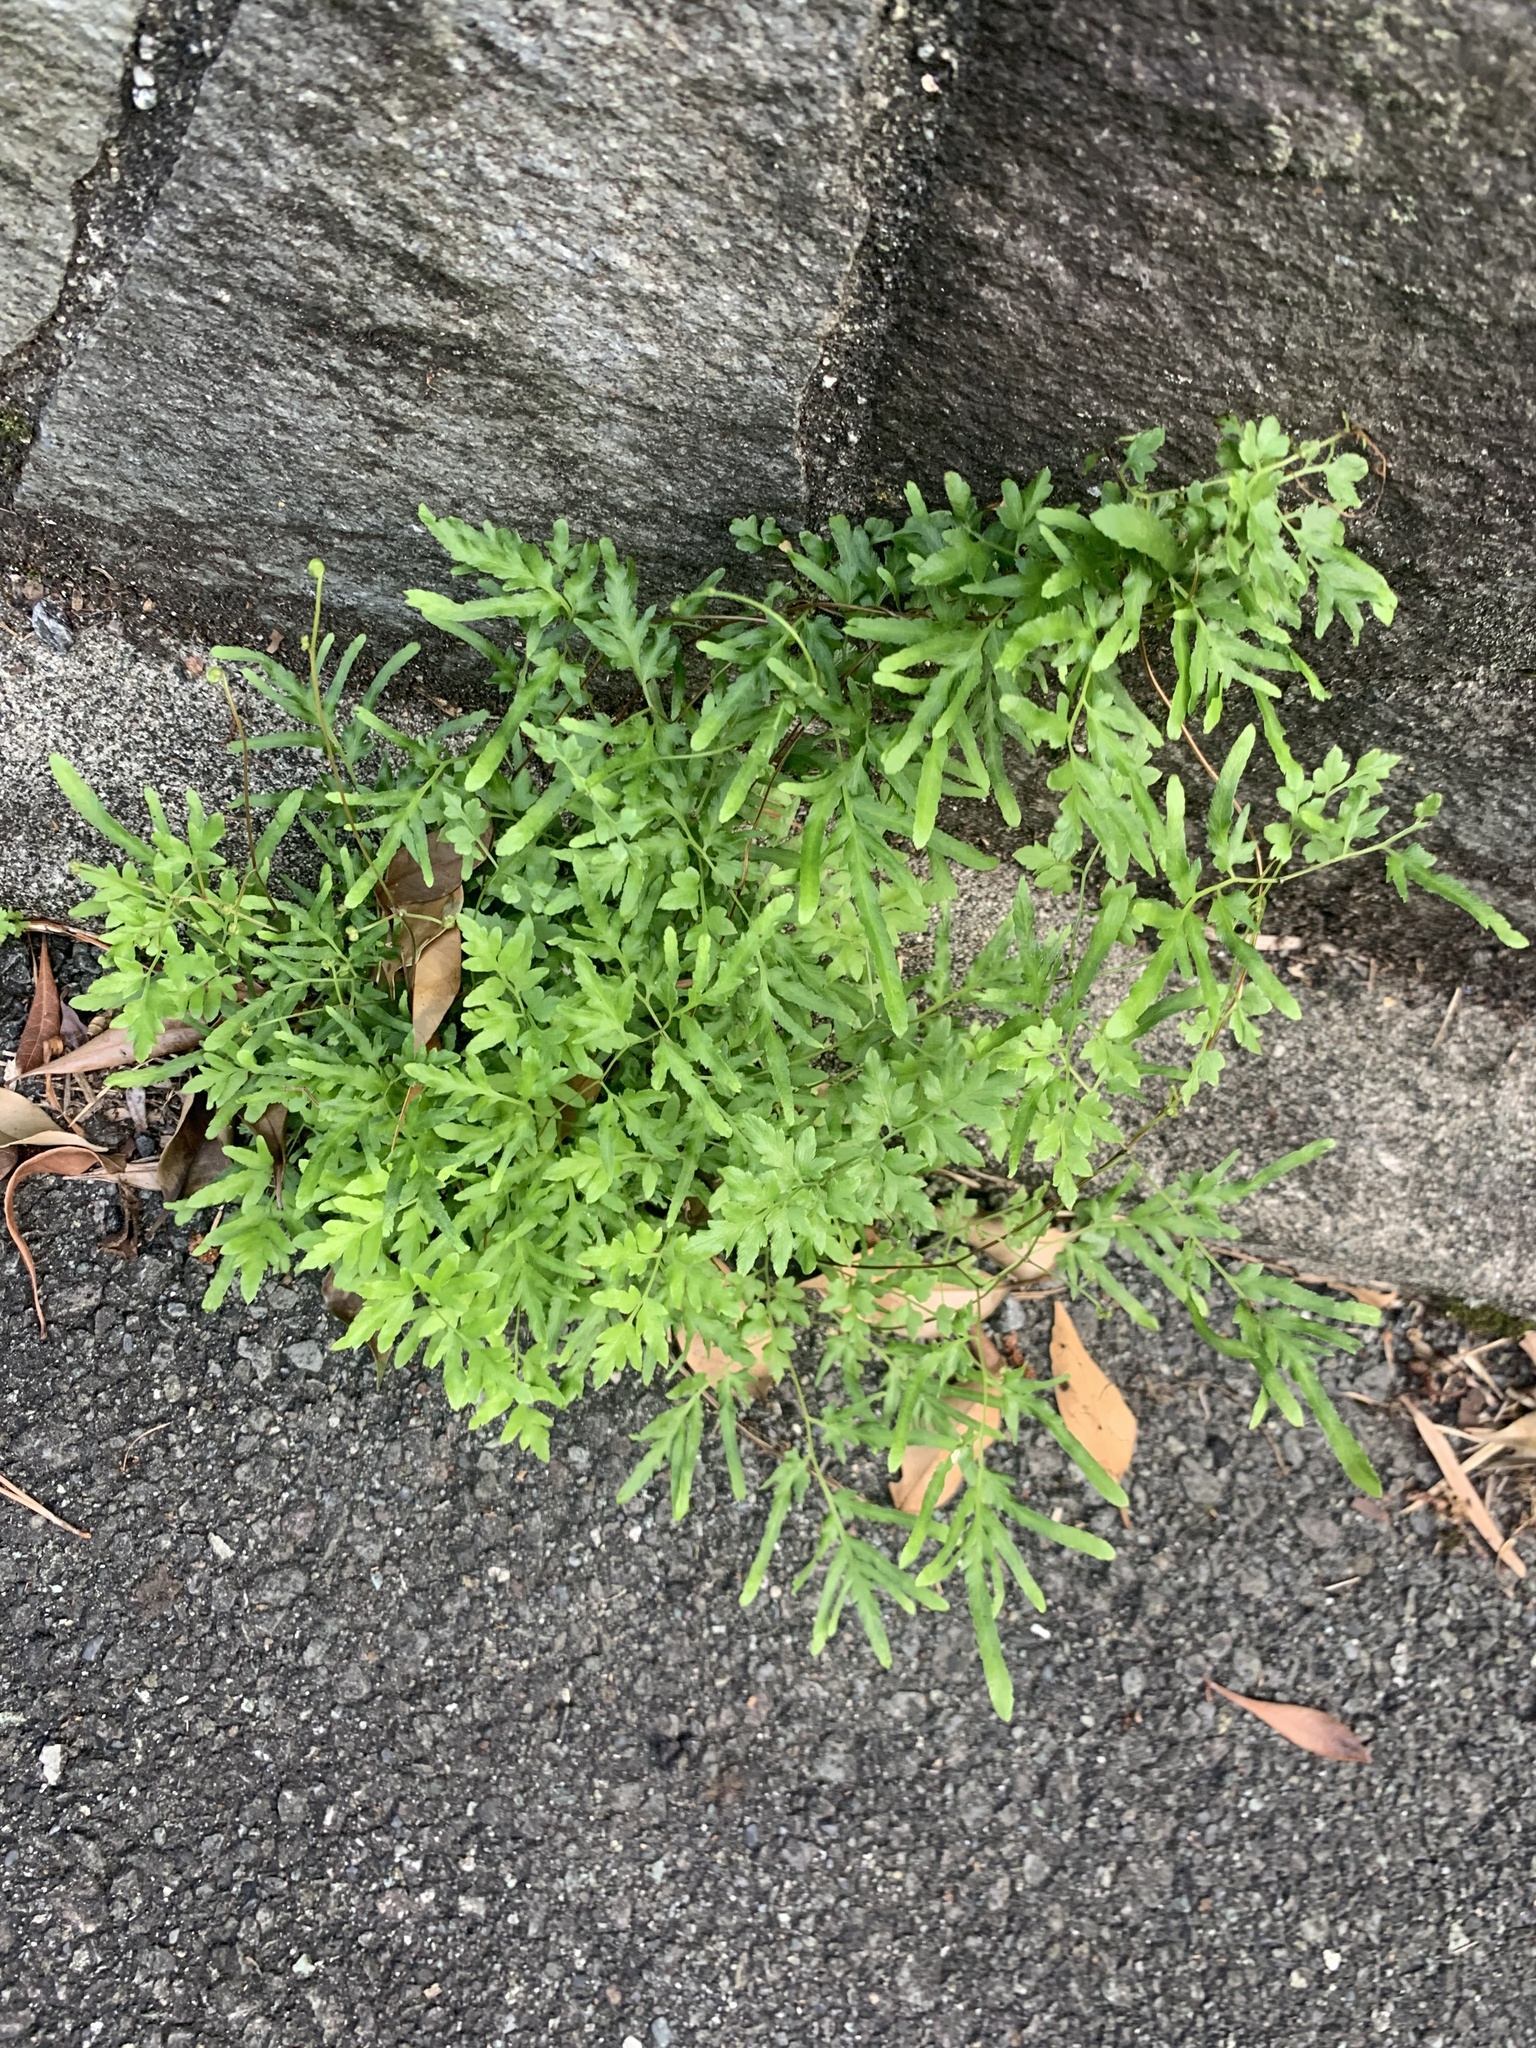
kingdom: Plantae
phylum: Tracheophyta
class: Polypodiopsida
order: Schizaeales
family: Lygodiaceae
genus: Lygodium
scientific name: Lygodium japonicum
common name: Japanese climbing fern
